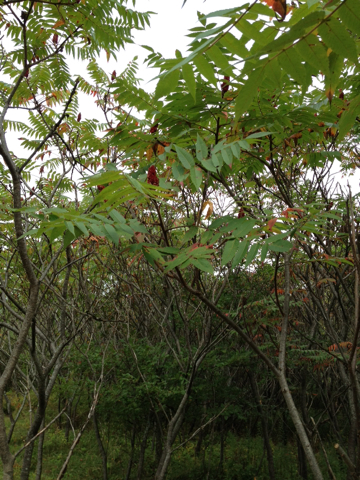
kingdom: Plantae
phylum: Tracheophyta
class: Magnoliopsida
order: Sapindales
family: Anacardiaceae
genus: Rhus
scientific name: Rhus typhina
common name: Staghorn sumac
